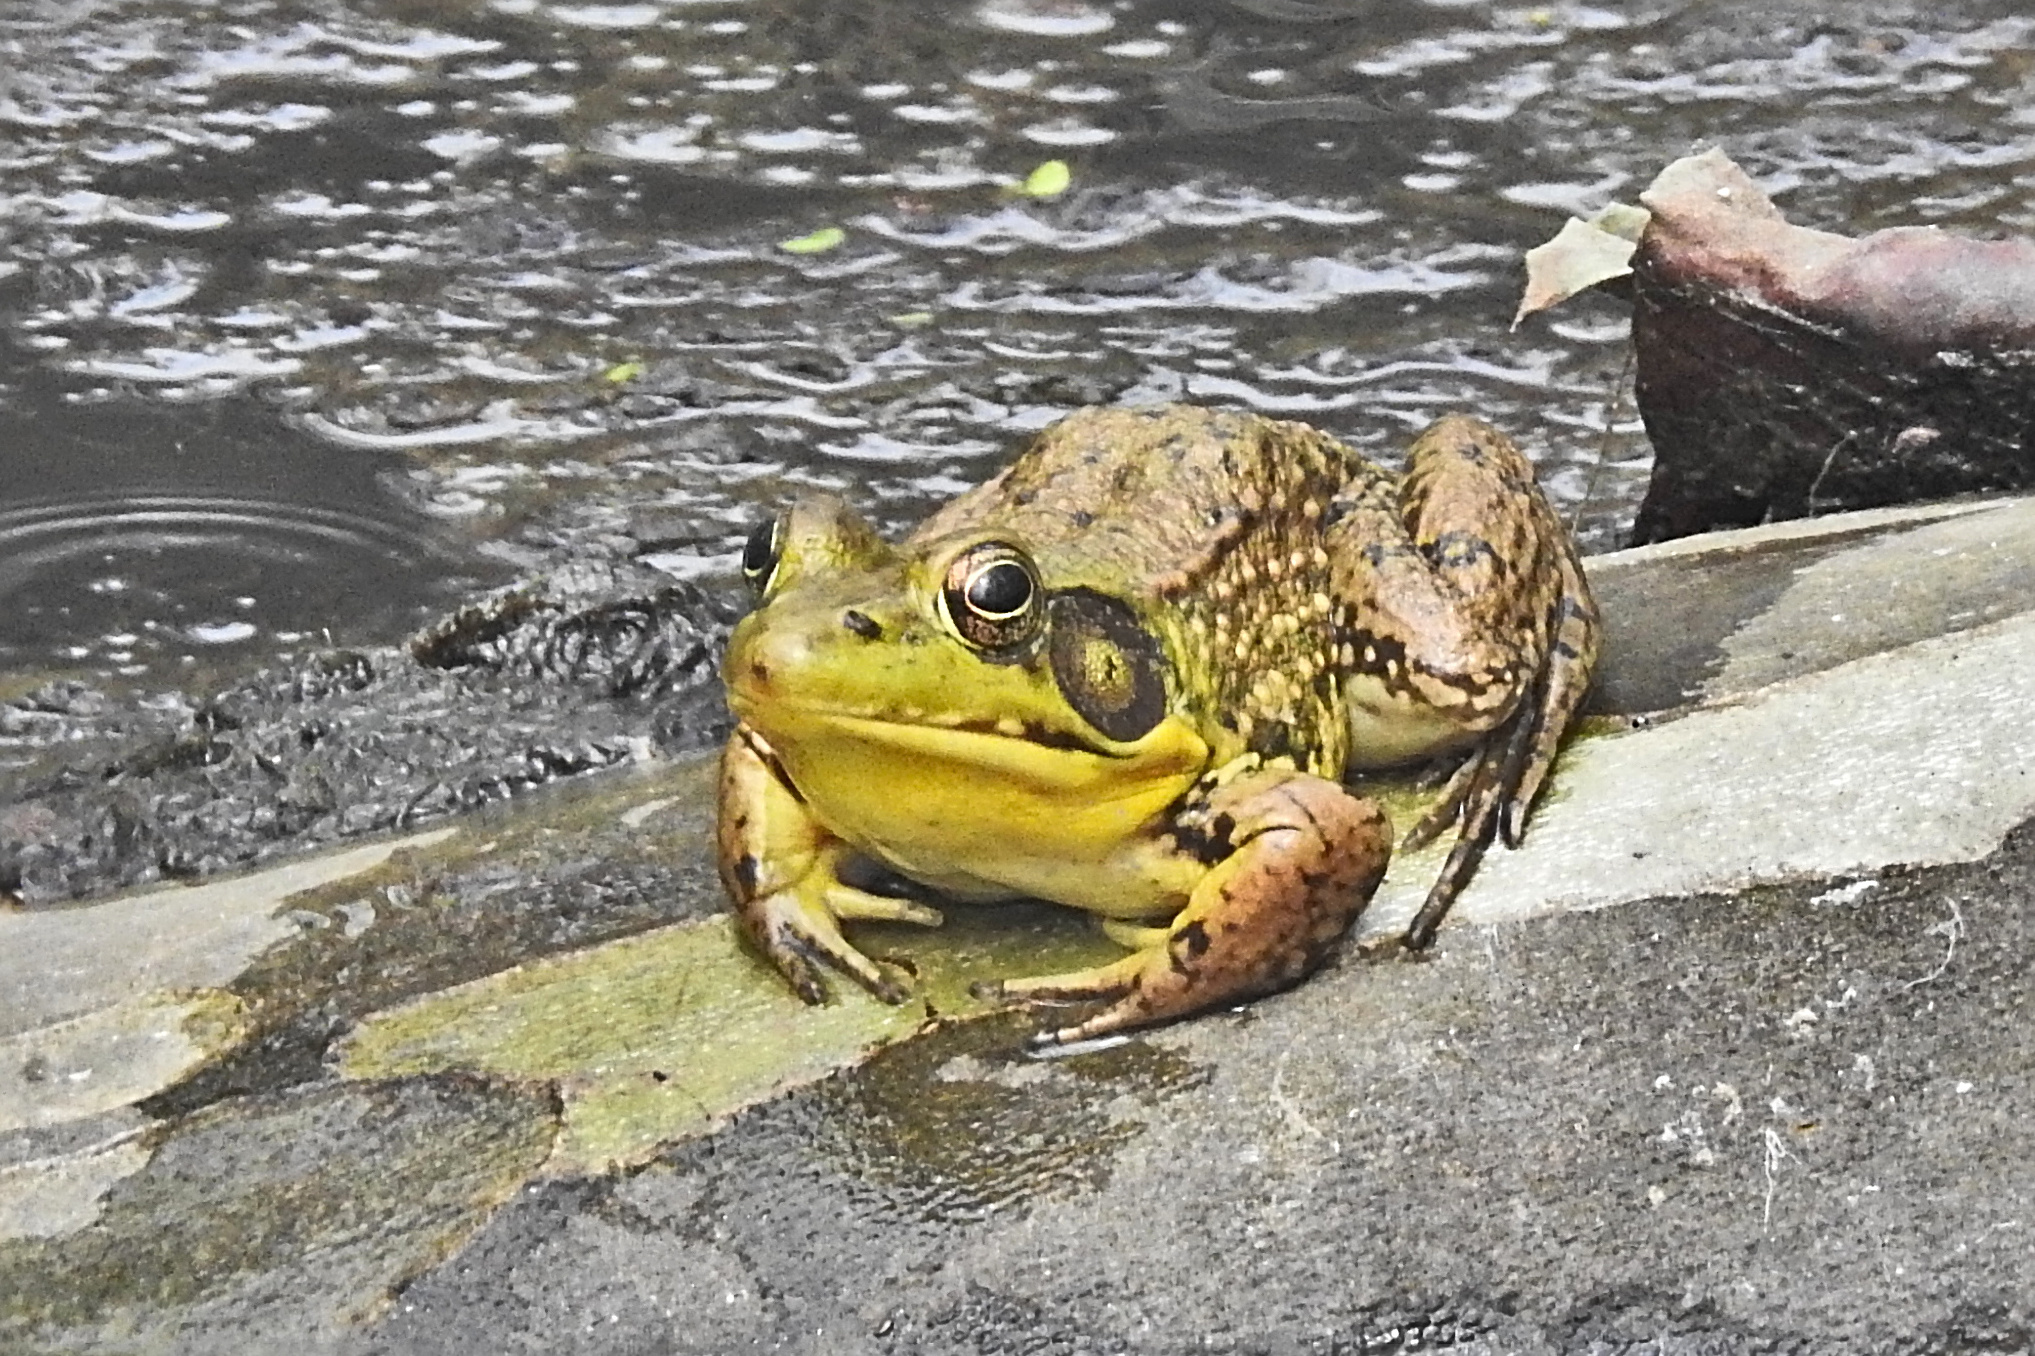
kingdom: Animalia
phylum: Chordata
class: Amphibia
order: Anura
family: Ranidae
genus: Lithobates
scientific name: Lithobates clamitans
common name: Green frog
